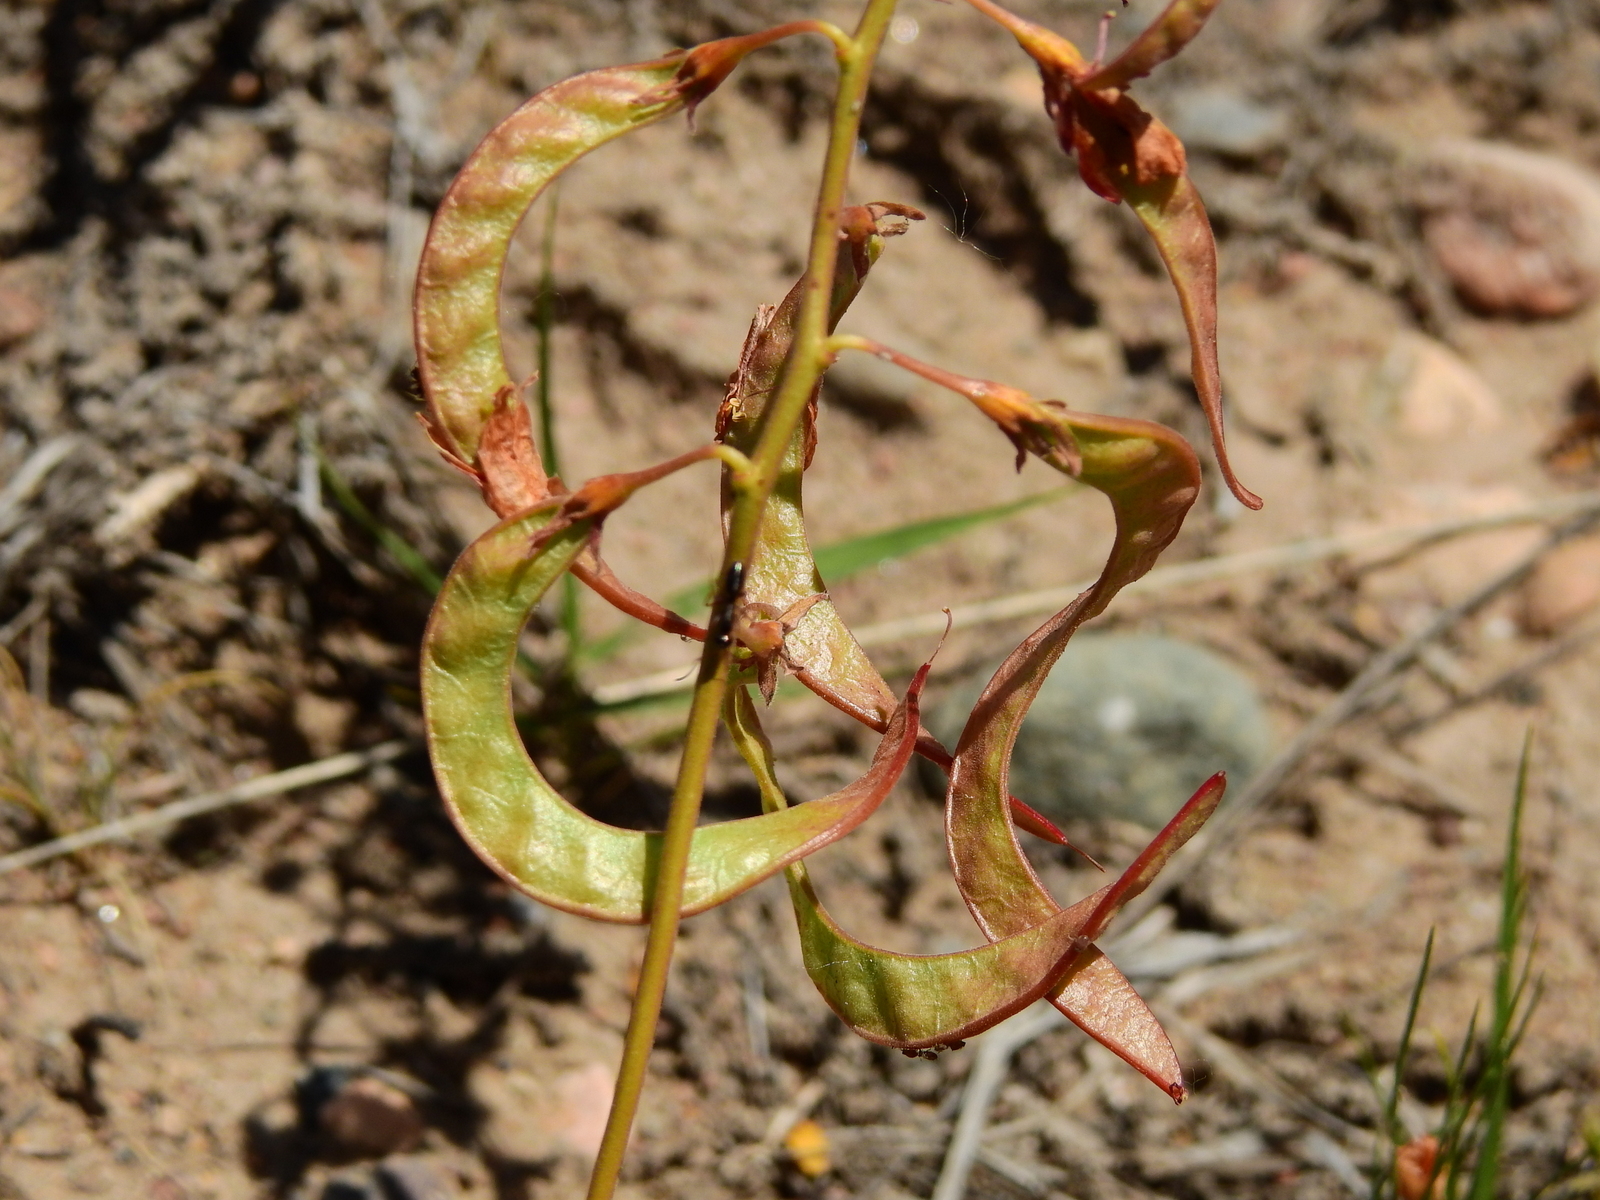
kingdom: Plantae
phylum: Tracheophyta
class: Magnoliopsida
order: Fabales
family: Fabaceae
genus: Hoffmannseggia
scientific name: Hoffmannseggia erecta
